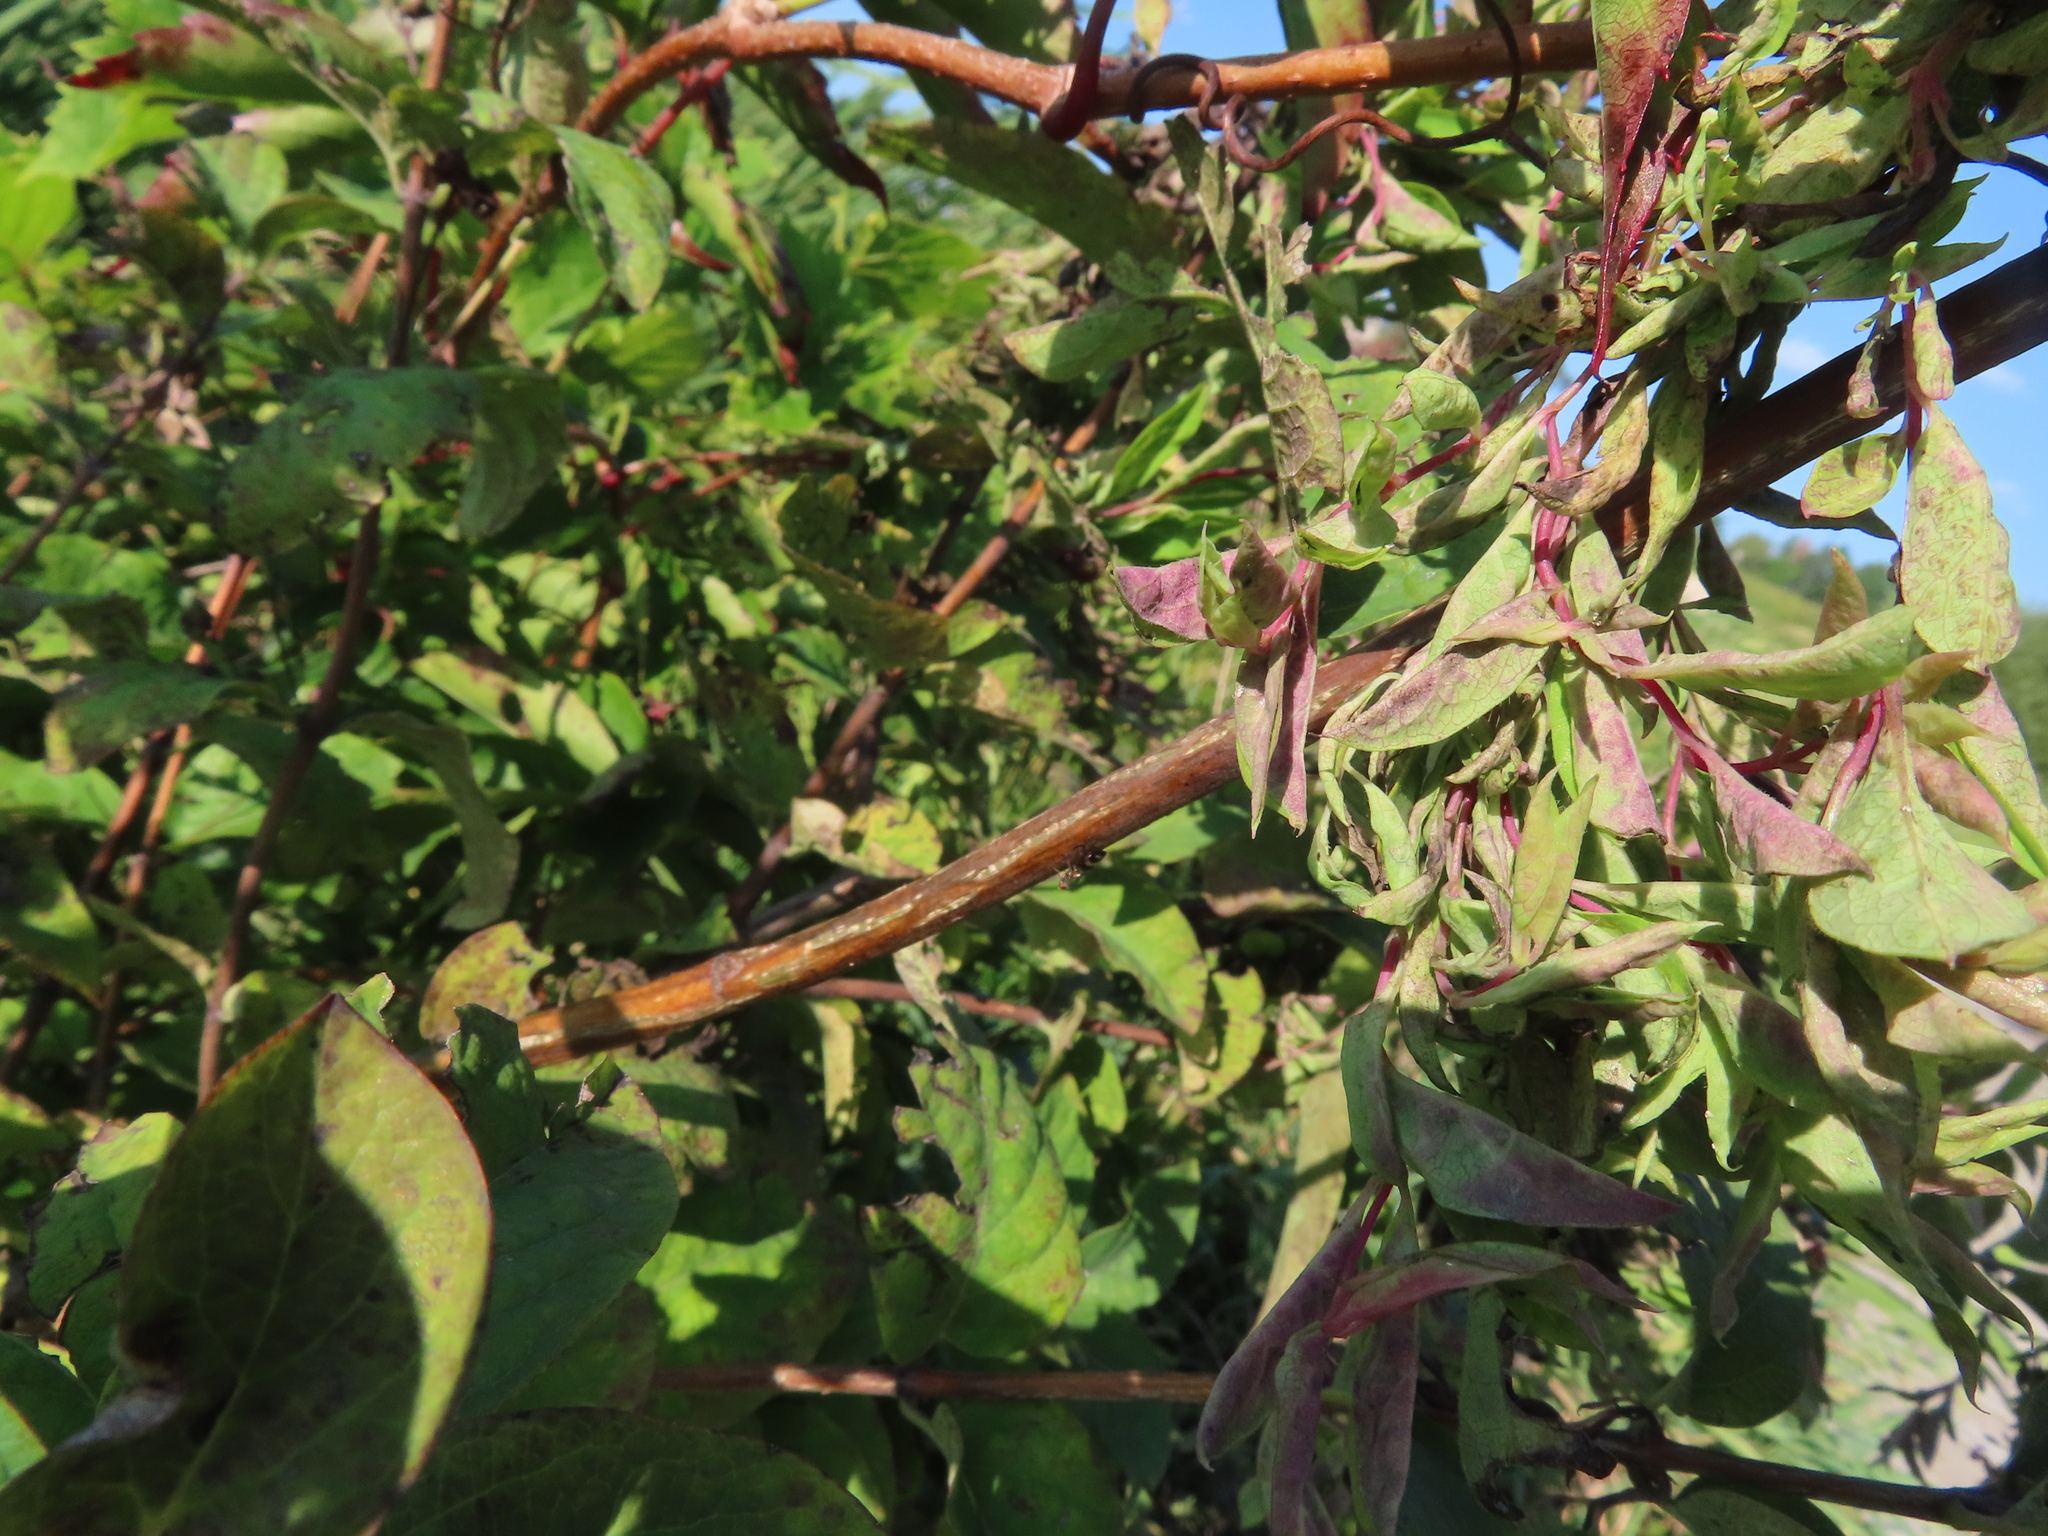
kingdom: Animalia
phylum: Arthropoda
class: Insecta
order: Hemiptera
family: Aphididae
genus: Hyadaphis
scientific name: Hyadaphis tataricae
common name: Honeysuckle witches' broom aphid
